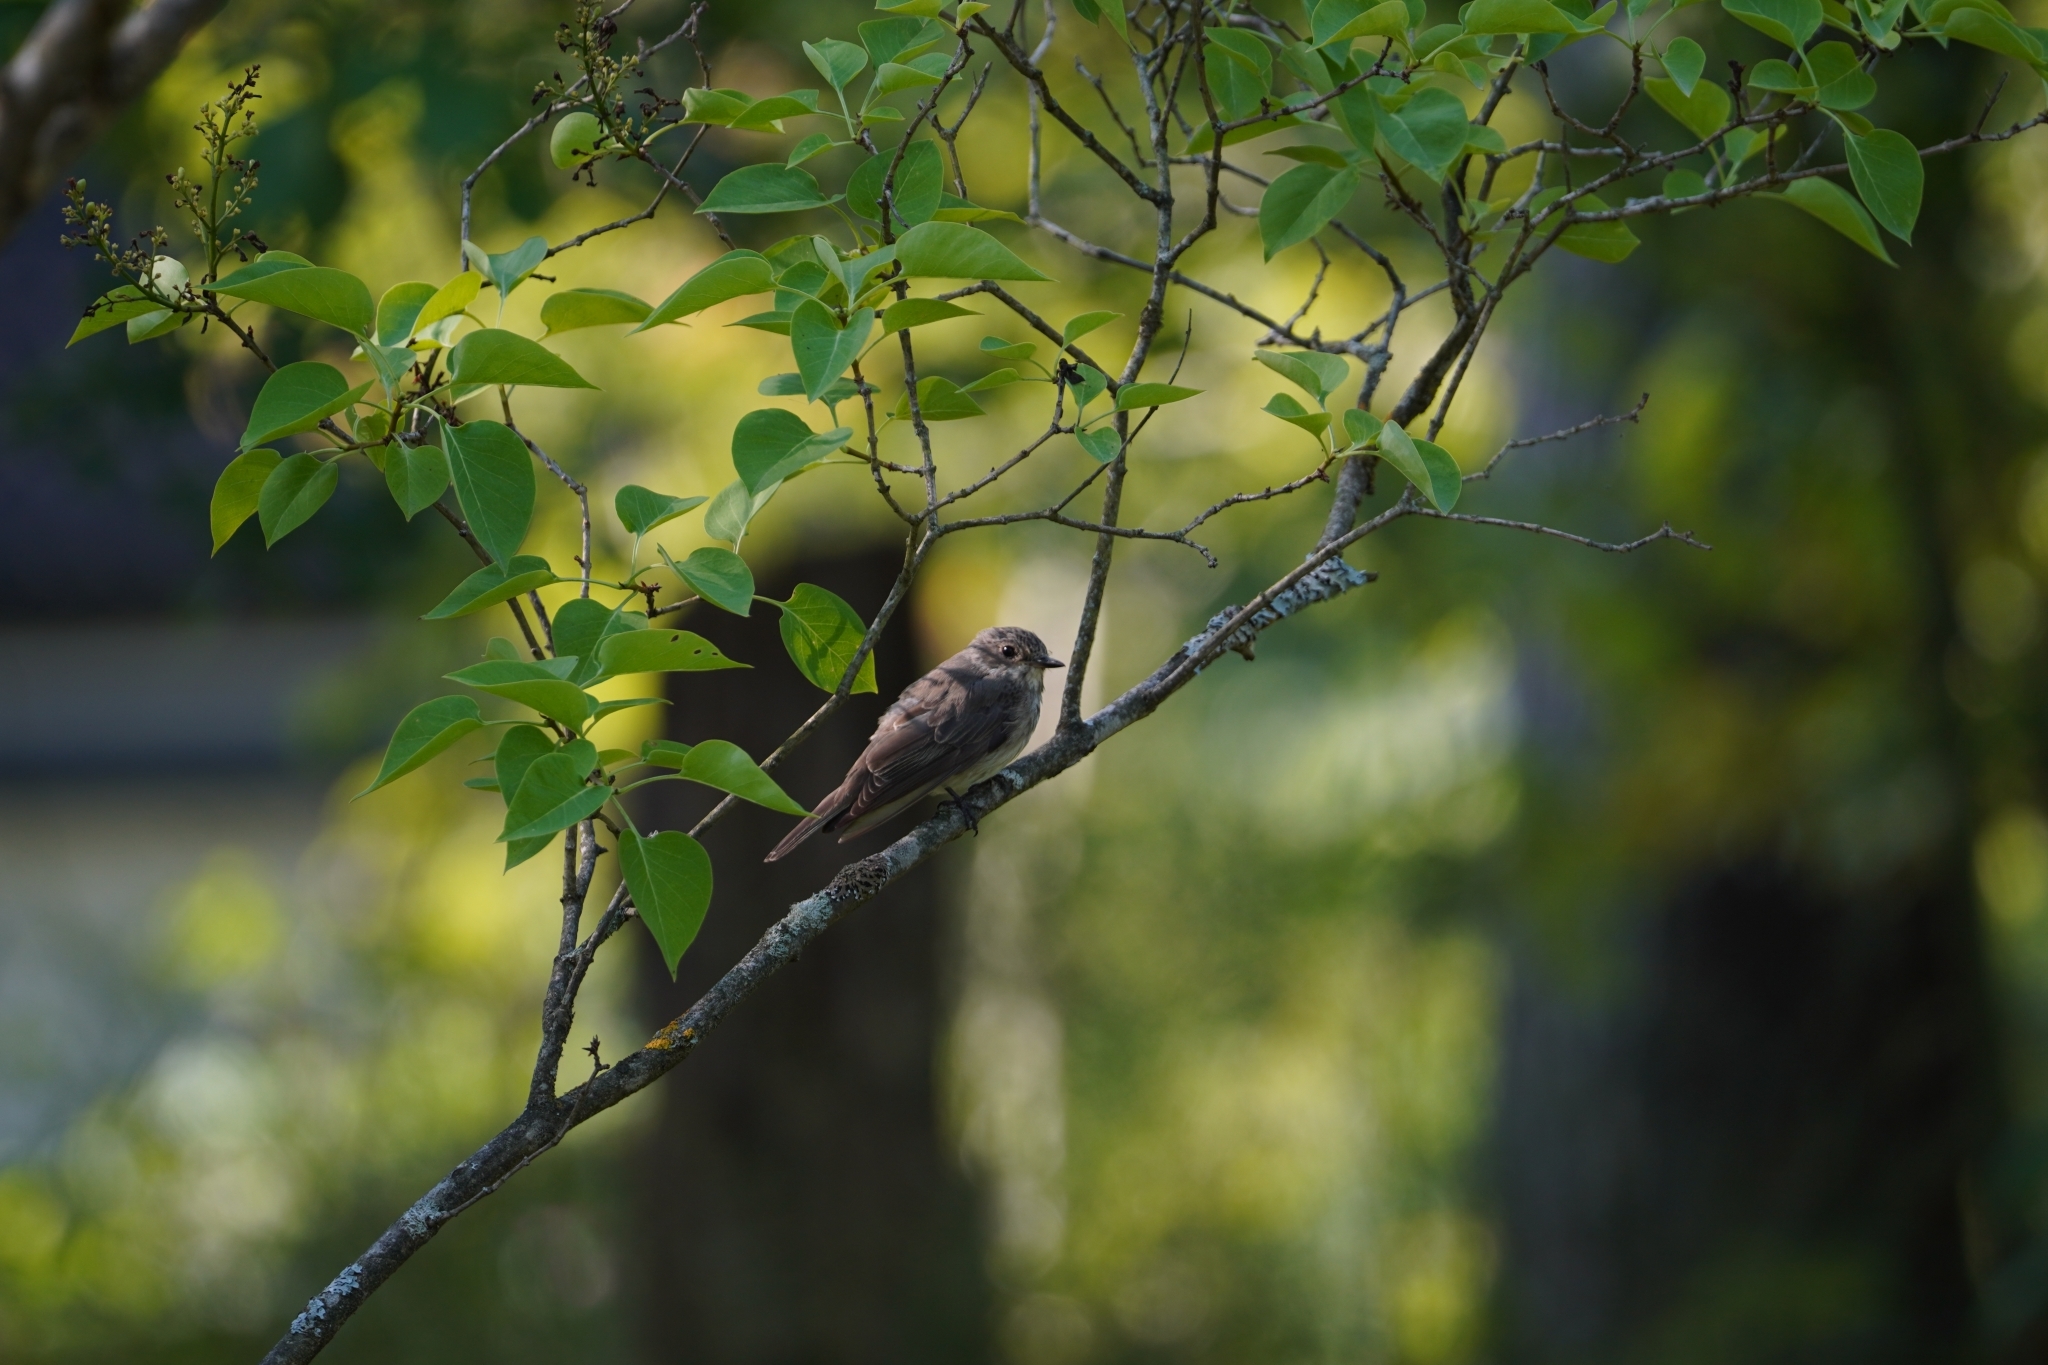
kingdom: Animalia
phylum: Chordata
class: Aves
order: Passeriformes
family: Muscicapidae
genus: Muscicapa
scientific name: Muscicapa striata
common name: Spotted flycatcher
